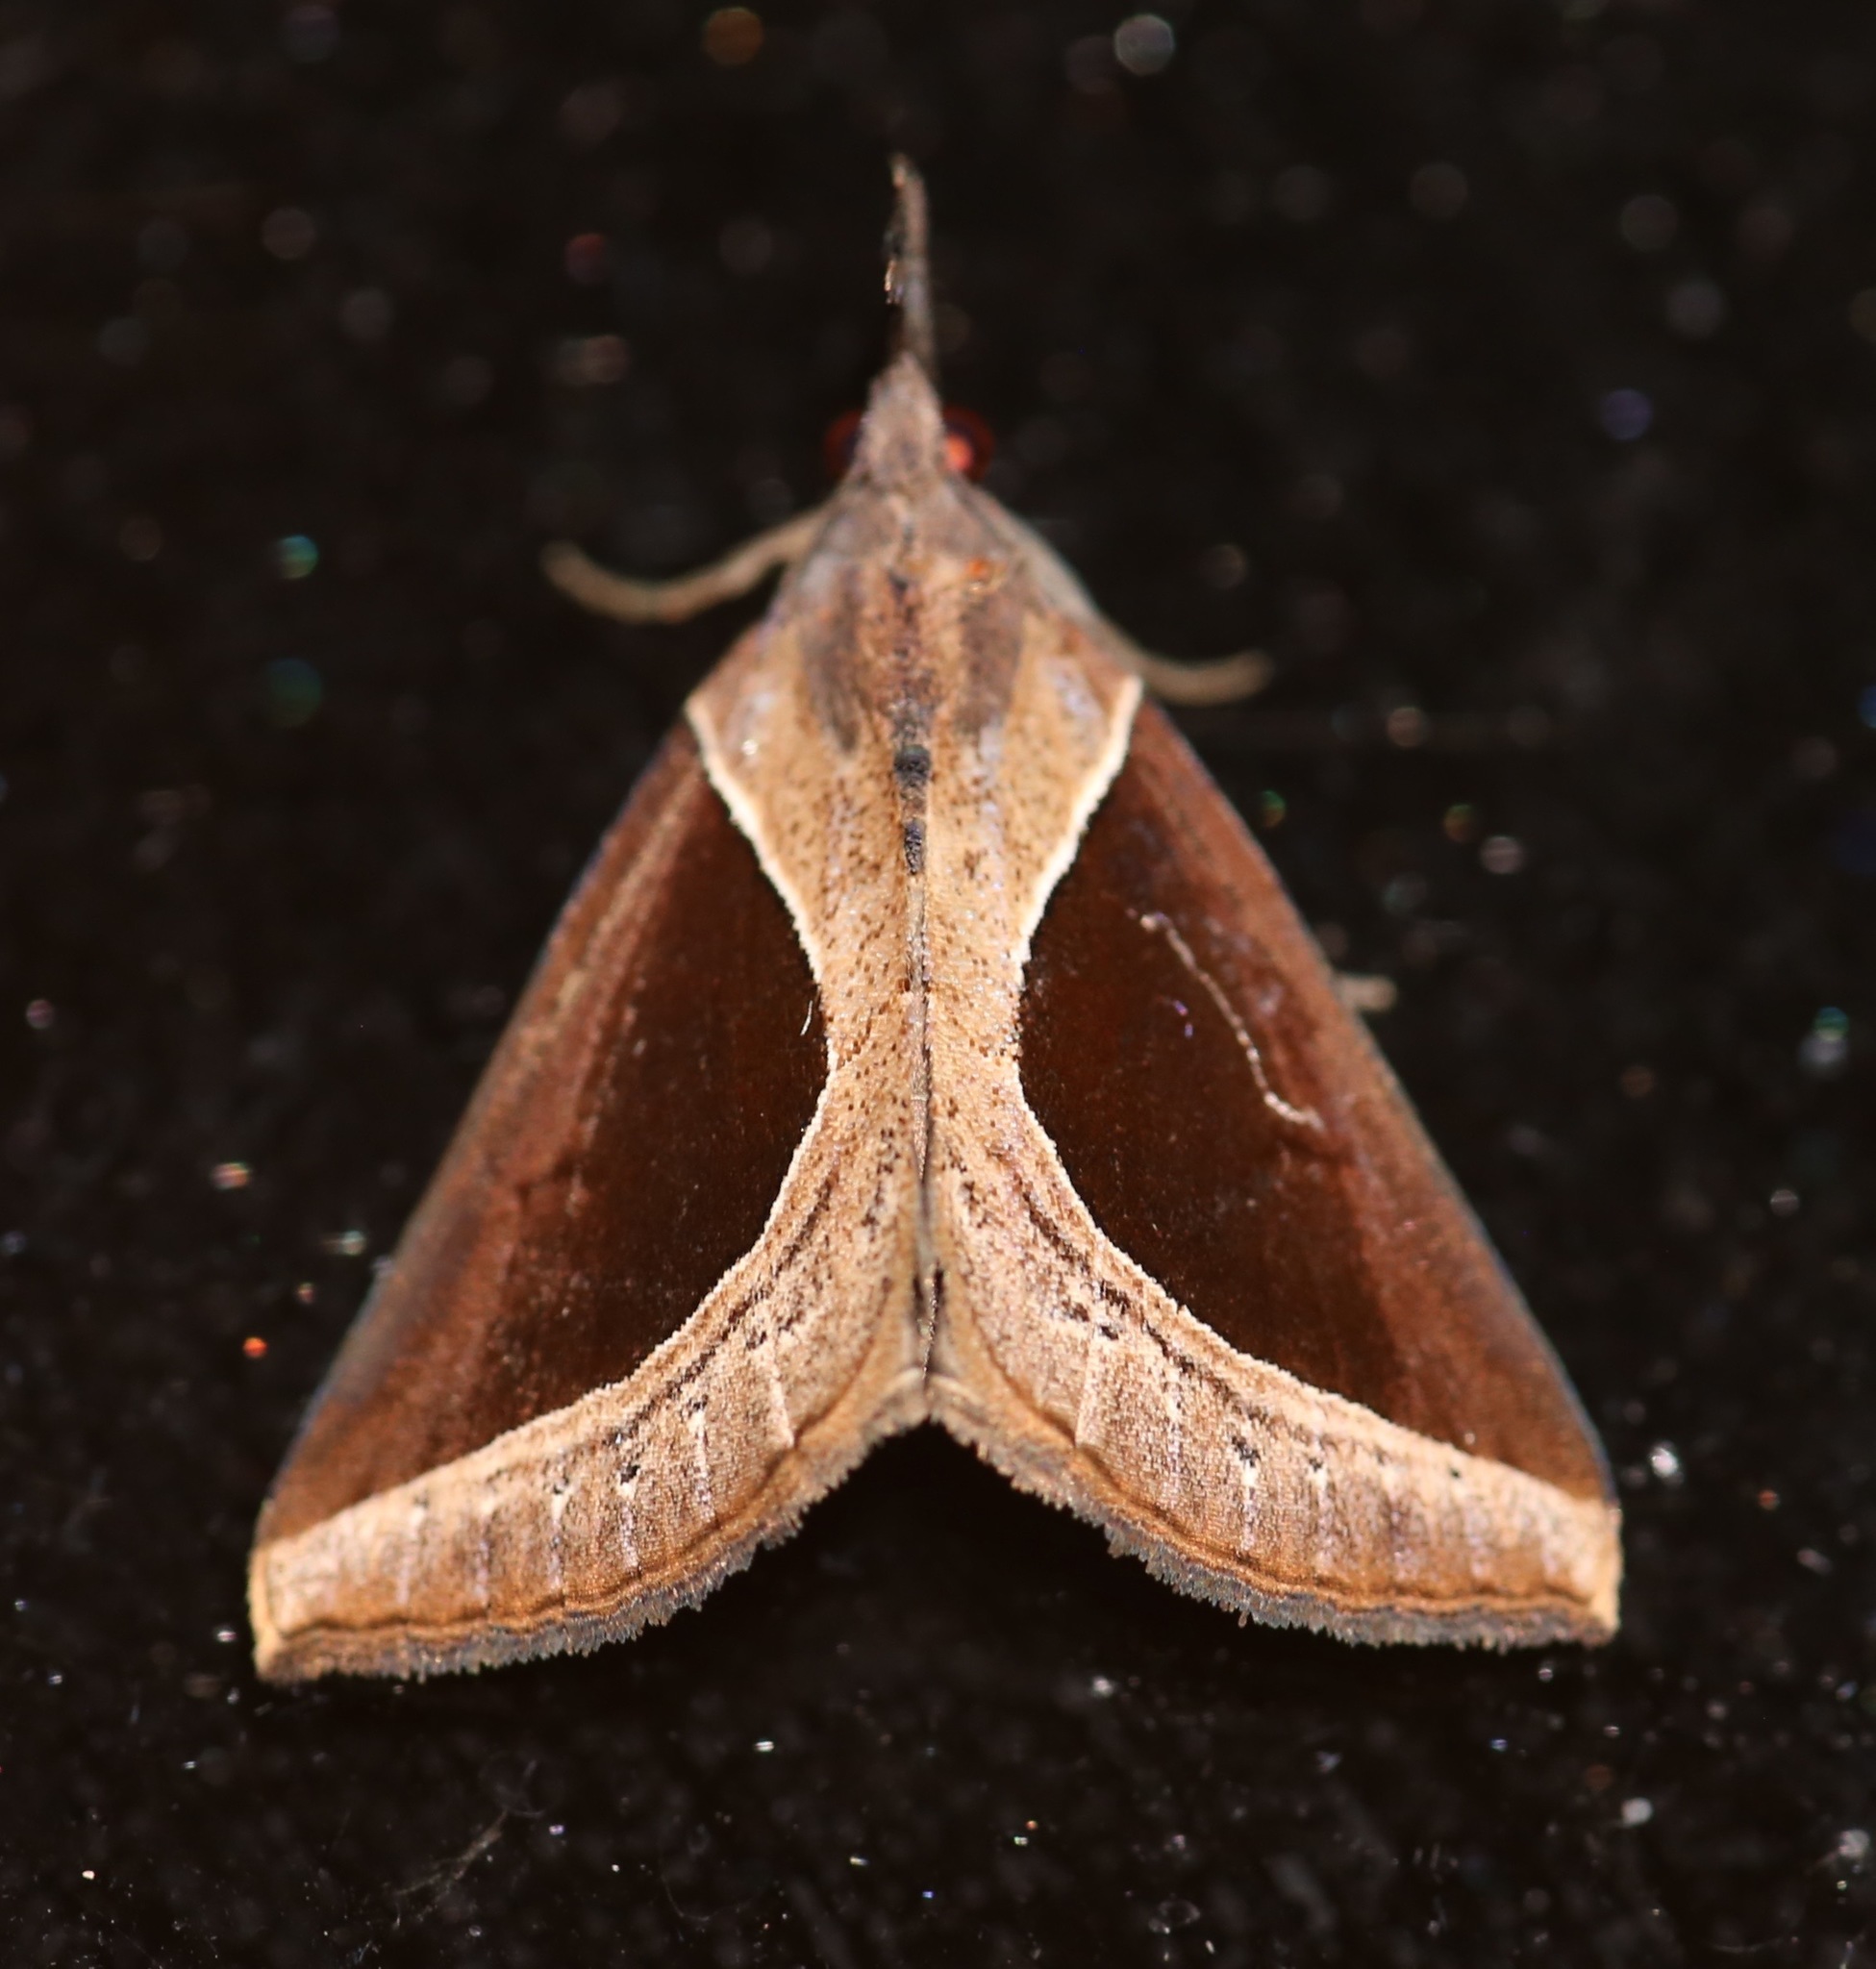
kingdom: Animalia
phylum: Arthropoda
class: Insecta
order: Lepidoptera
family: Erebidae
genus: Hypena
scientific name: Hypena
